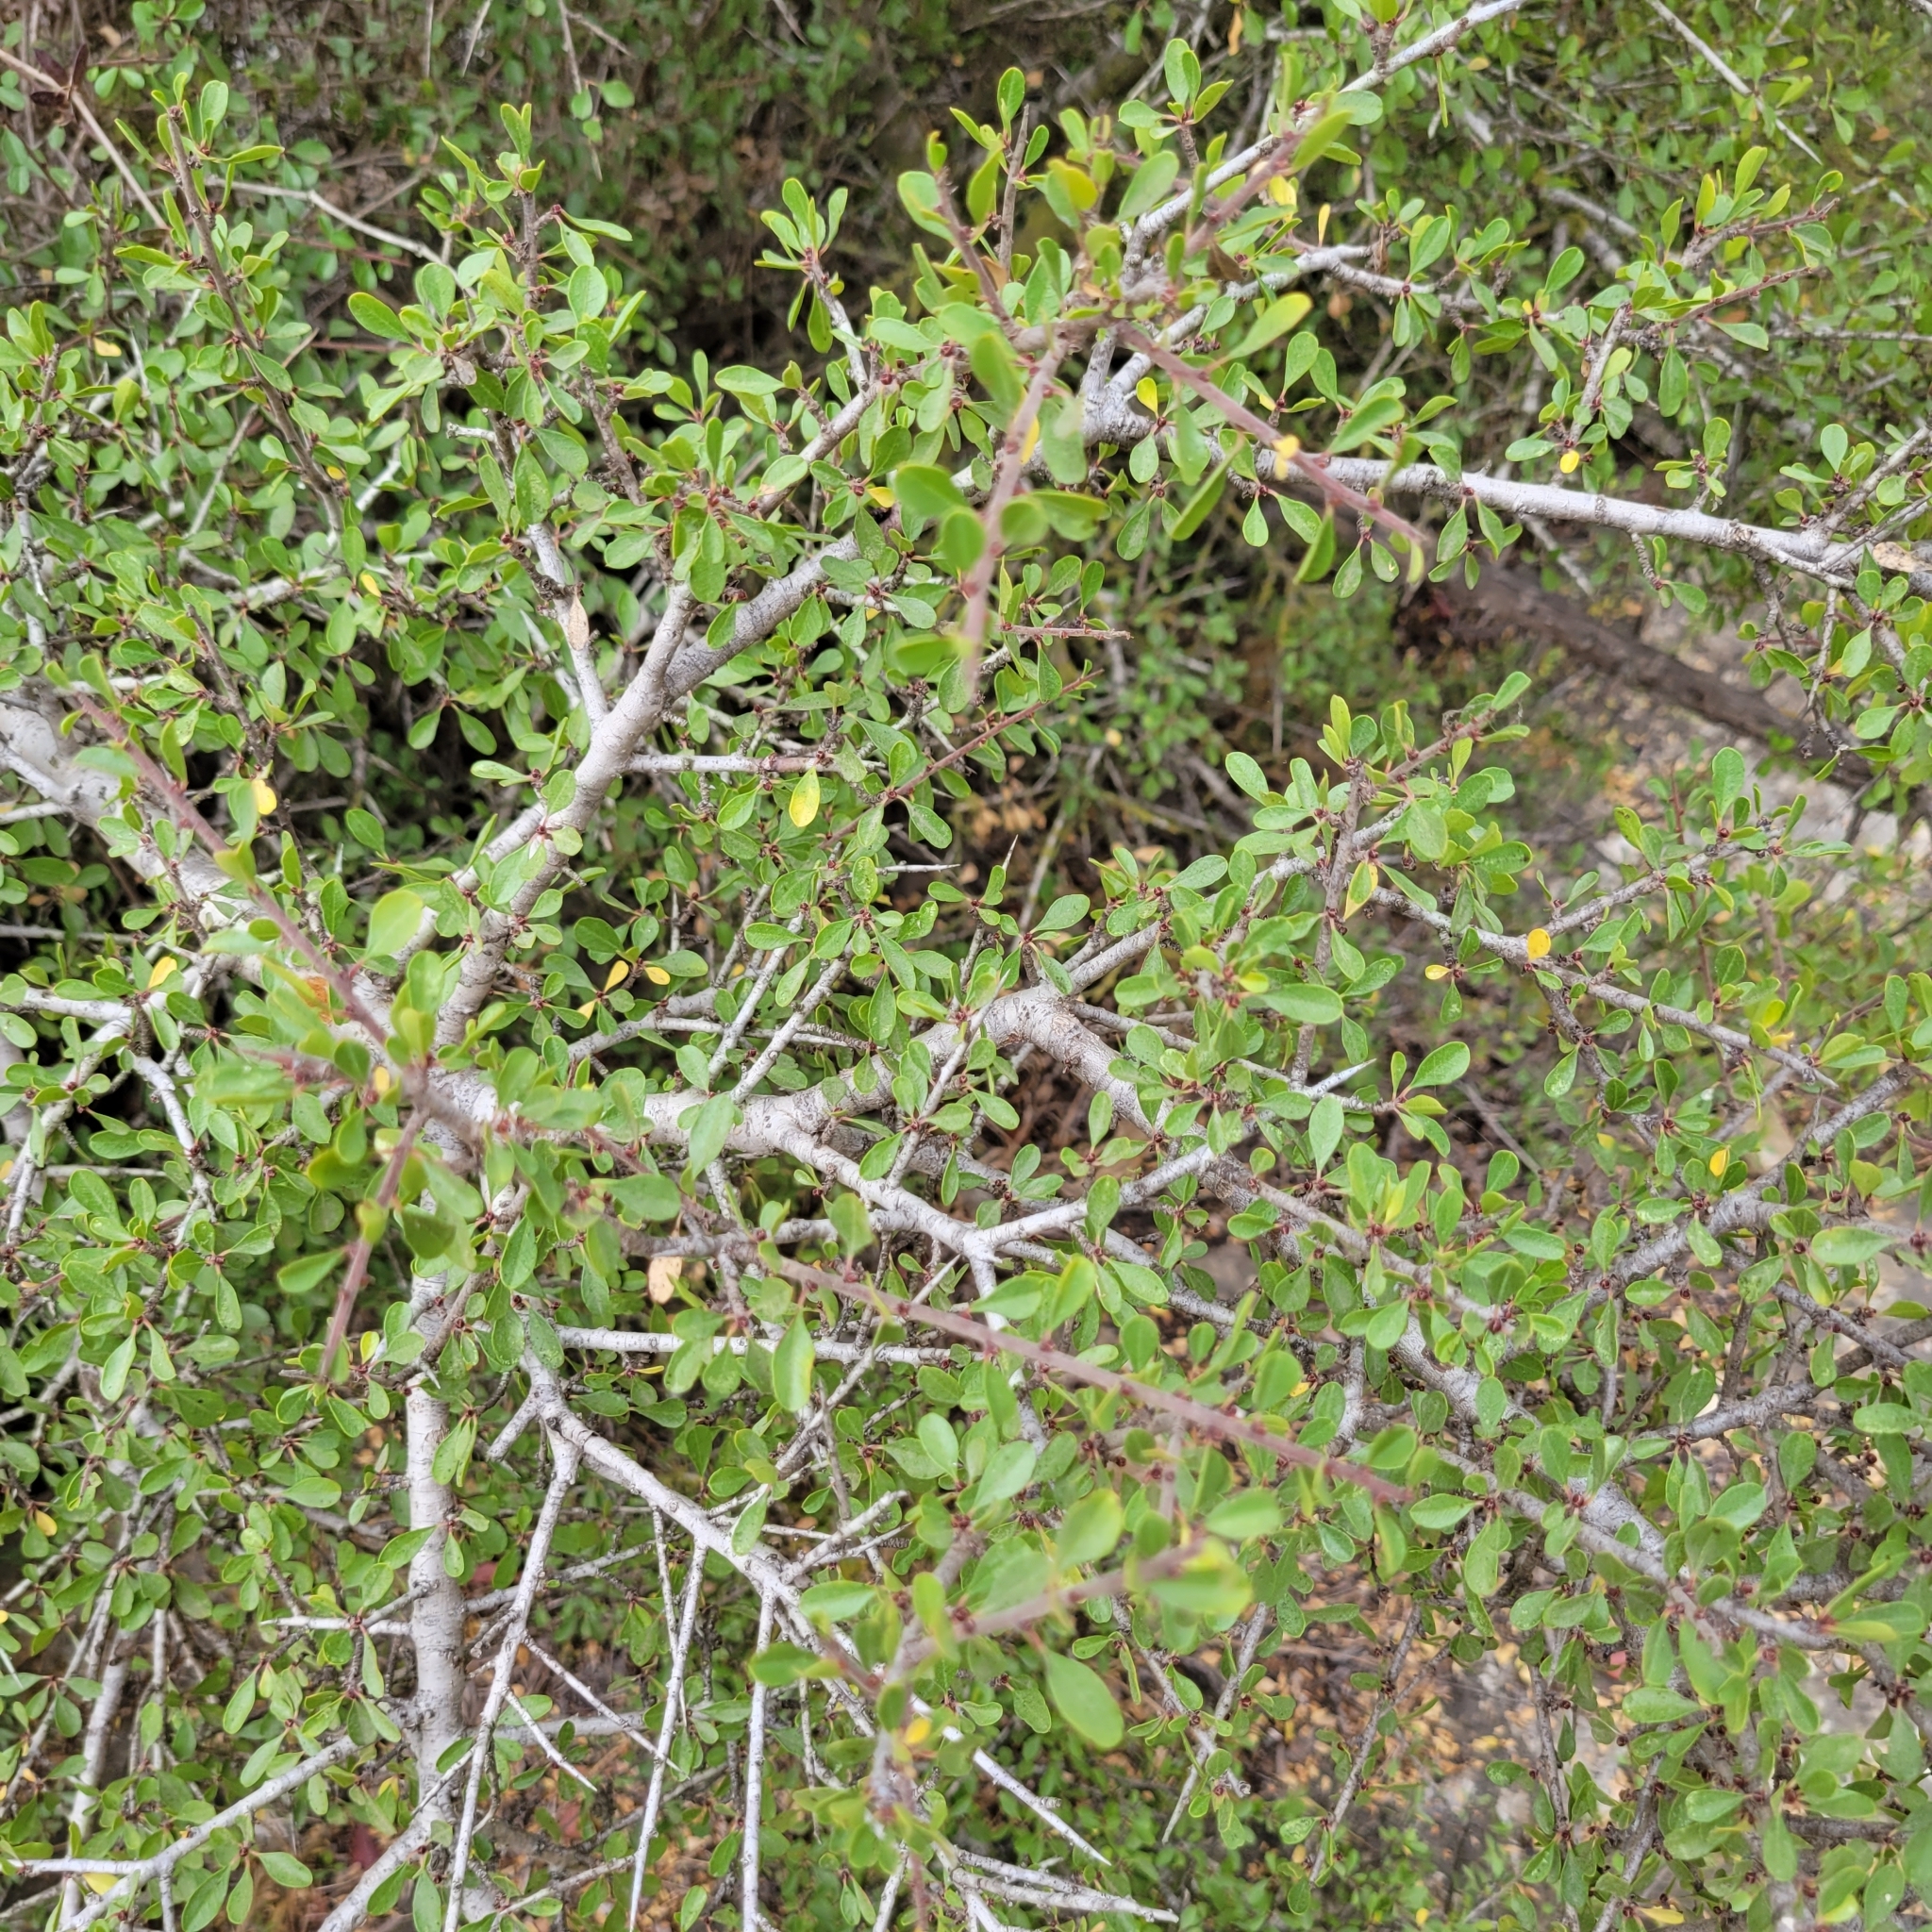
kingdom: Plantae
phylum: Tracheophyta
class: Magnoliopsida
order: Rosales
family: Rhamnaceae
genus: Rhamnus
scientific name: Rhamnus lycioides
